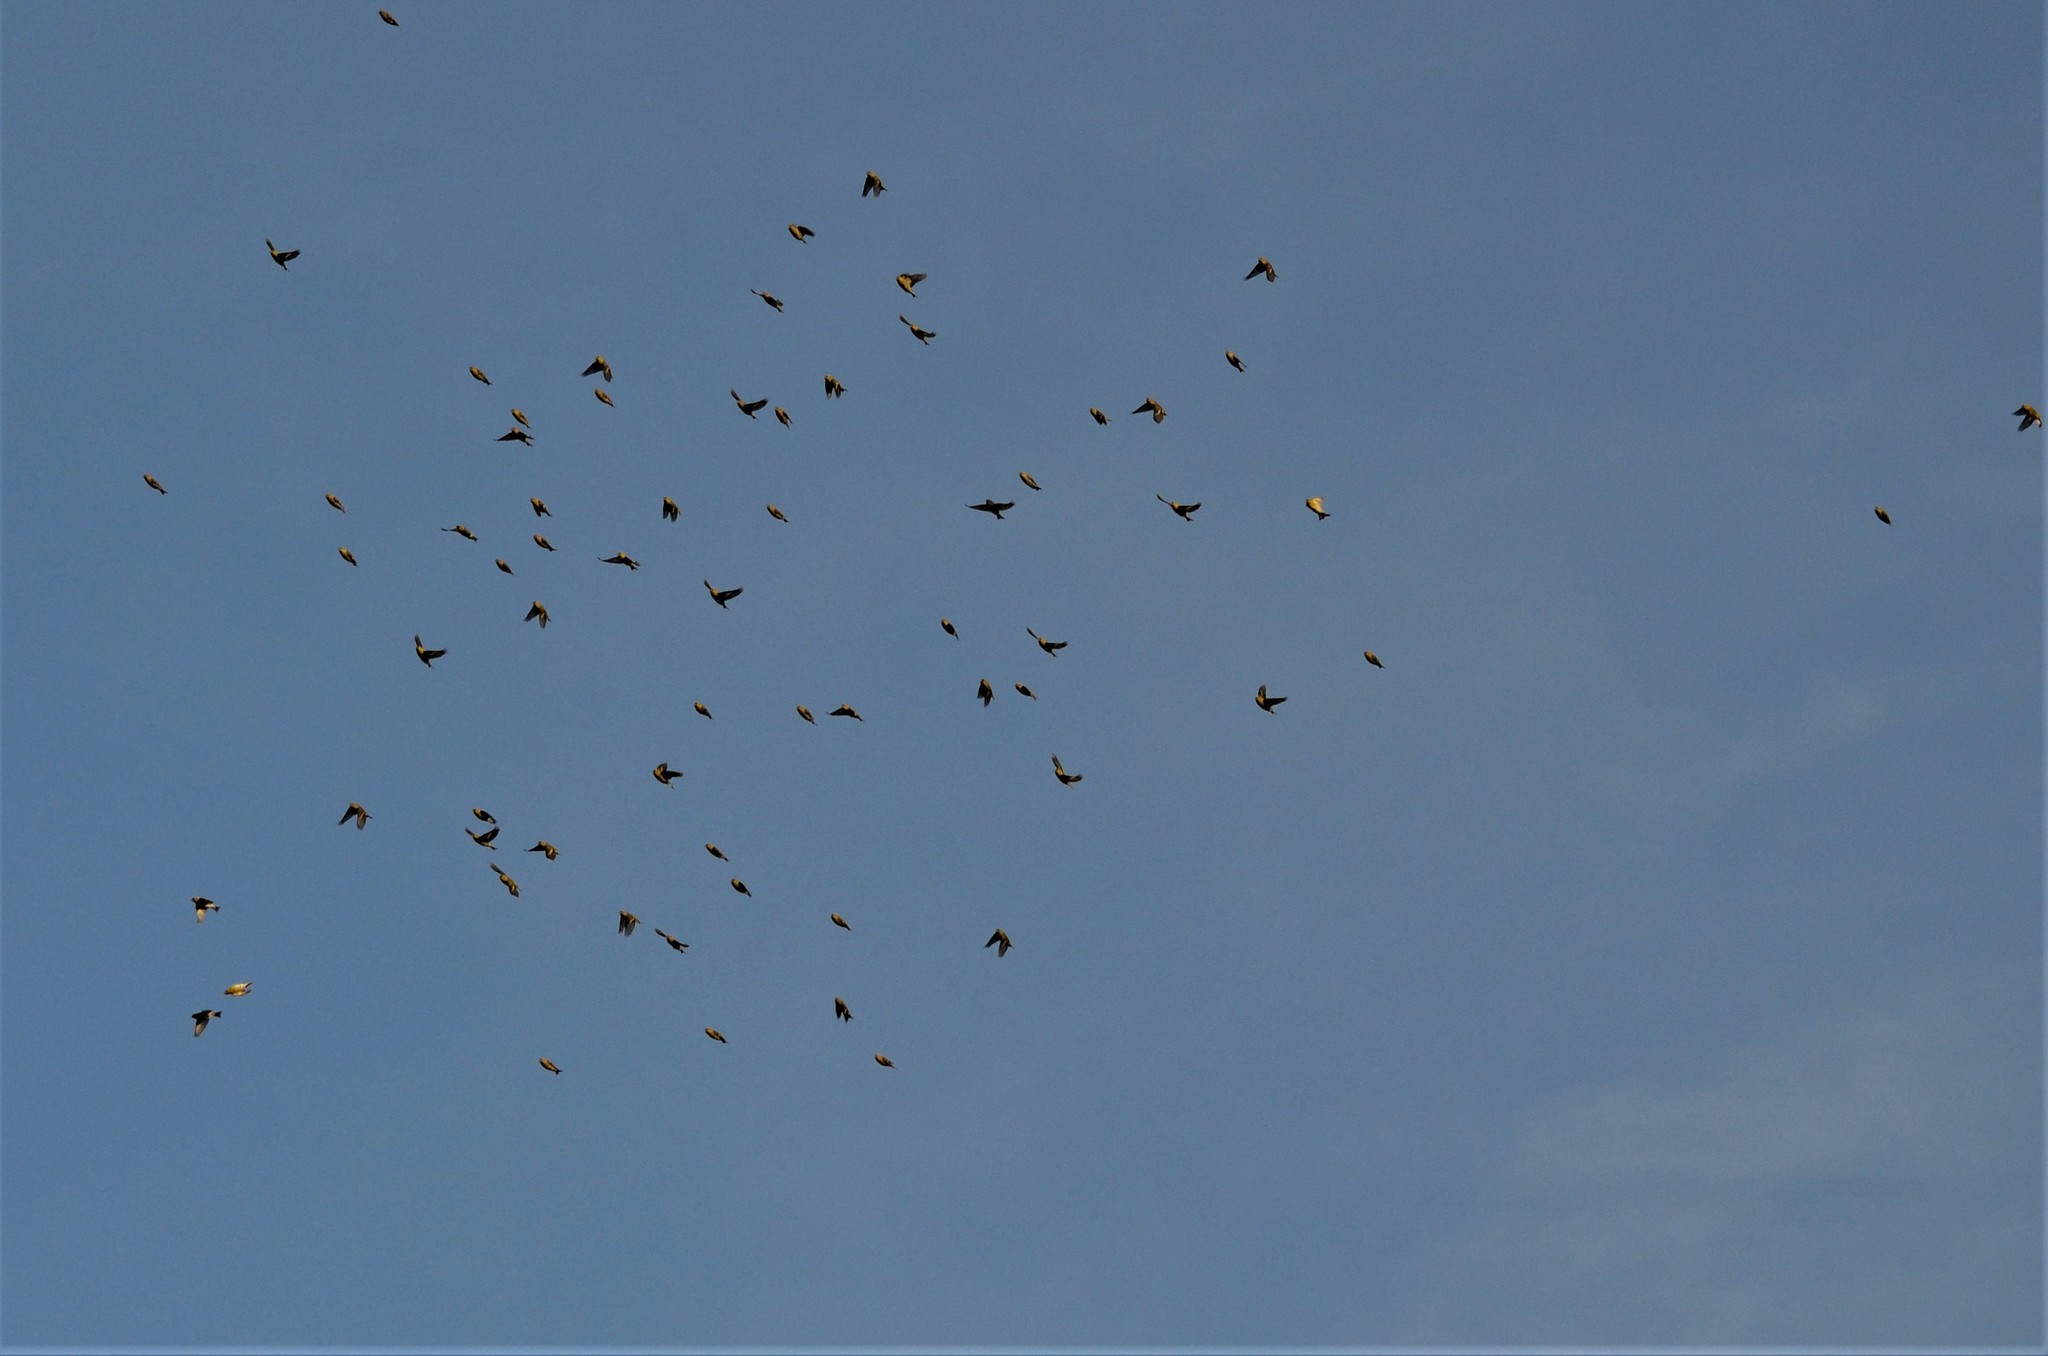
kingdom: Animalia
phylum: Chordata
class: Aves
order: Passeriformes
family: Fringillidae
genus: Spinus
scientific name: Spinus spinus
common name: Eurasian siskin
